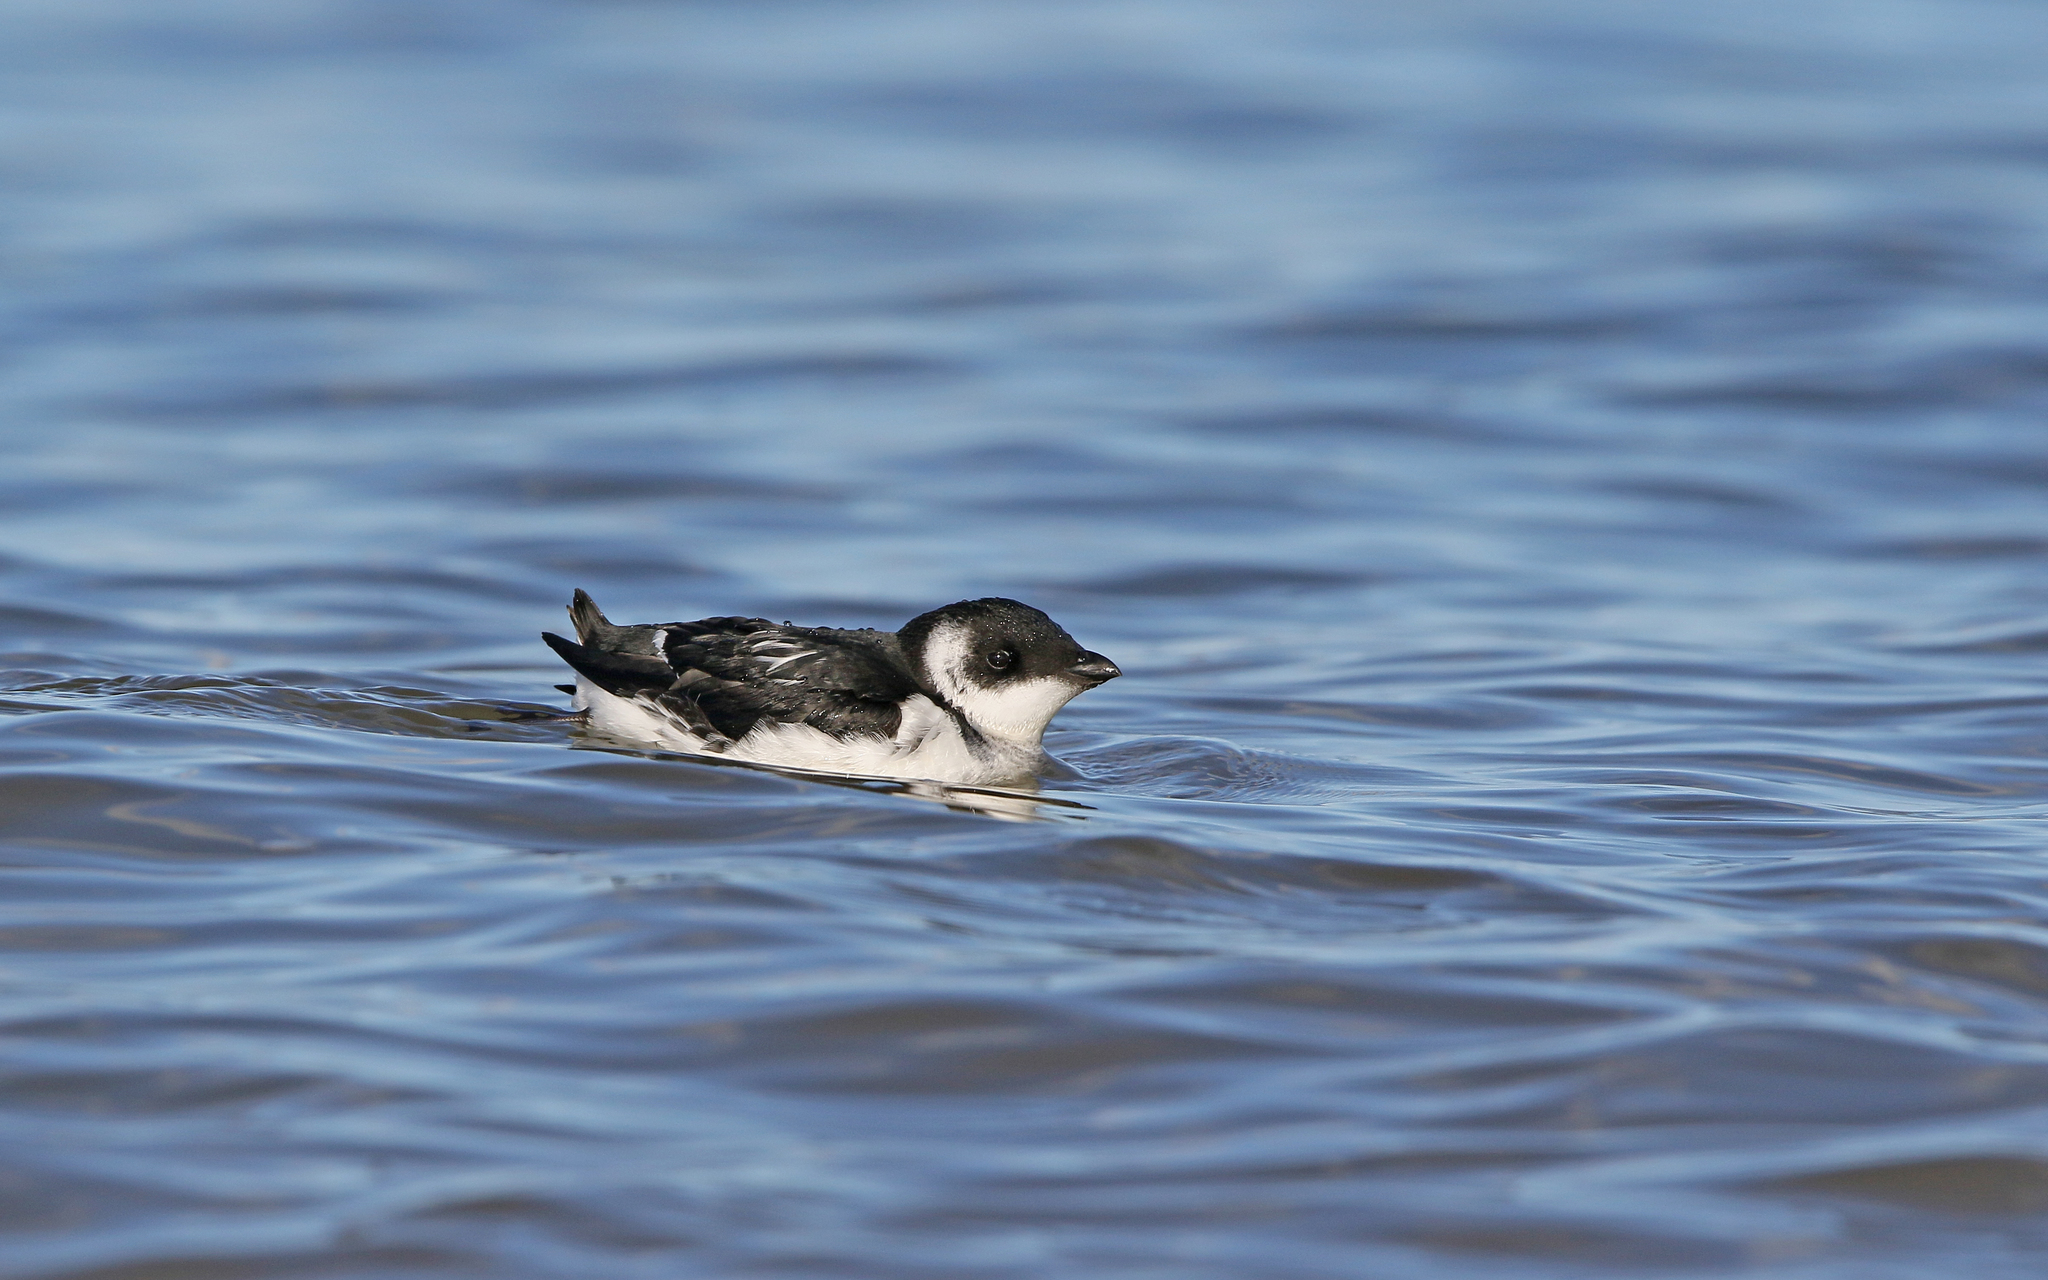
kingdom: Animalia
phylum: Chordata
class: Aves
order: Charadriiformes
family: Alcidae
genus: Alle
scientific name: Alle alle
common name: Little auk
